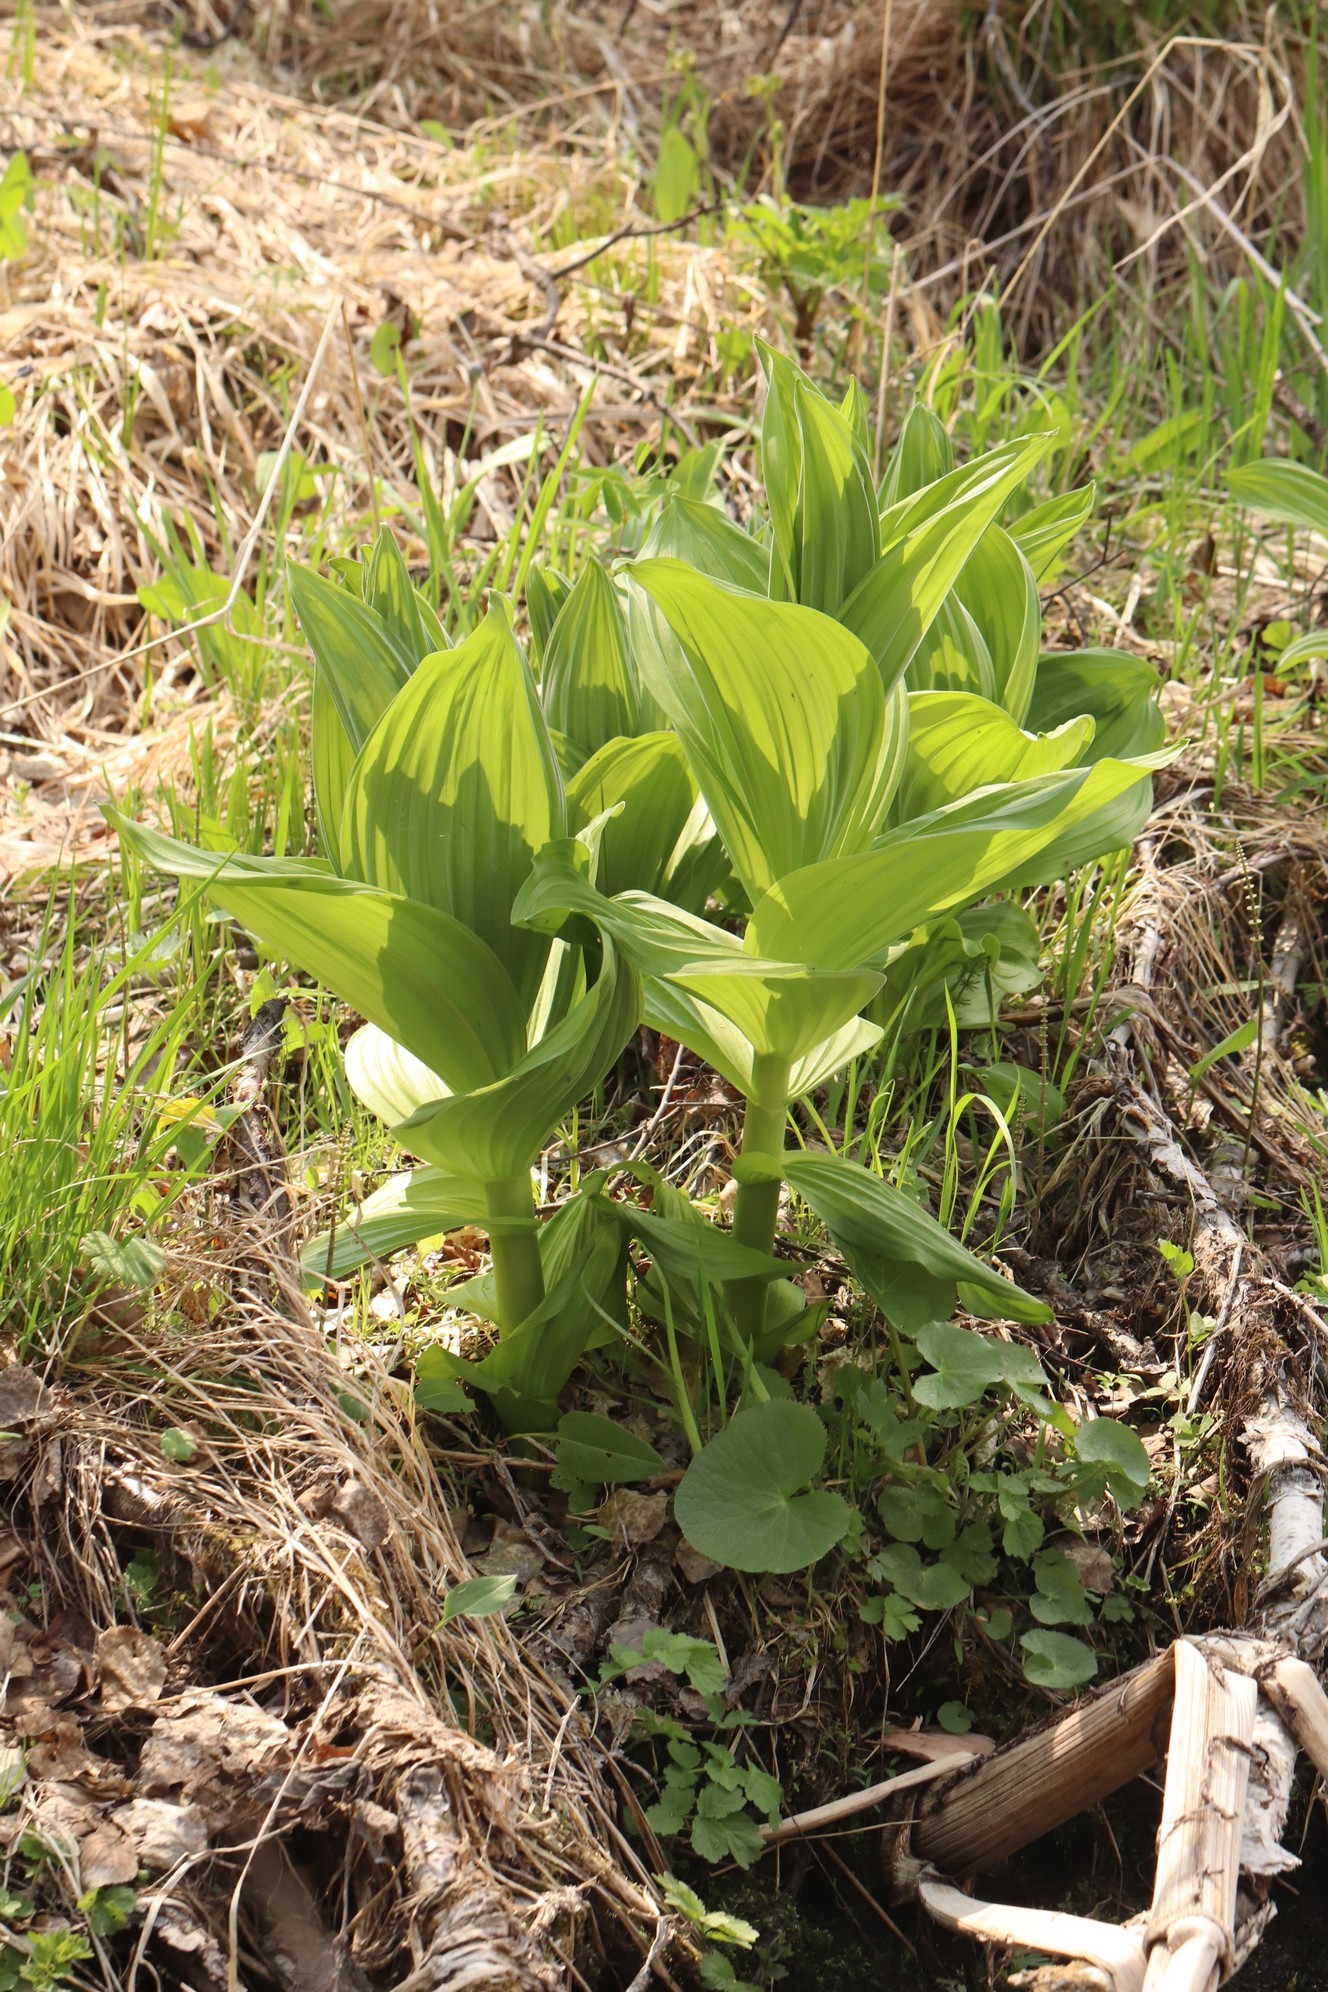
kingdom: Plantae
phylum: Tracheophyta
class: Liliopsida
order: Liliales
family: Melanthiaceae
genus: Veratrum
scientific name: Veratrum lobelianum
